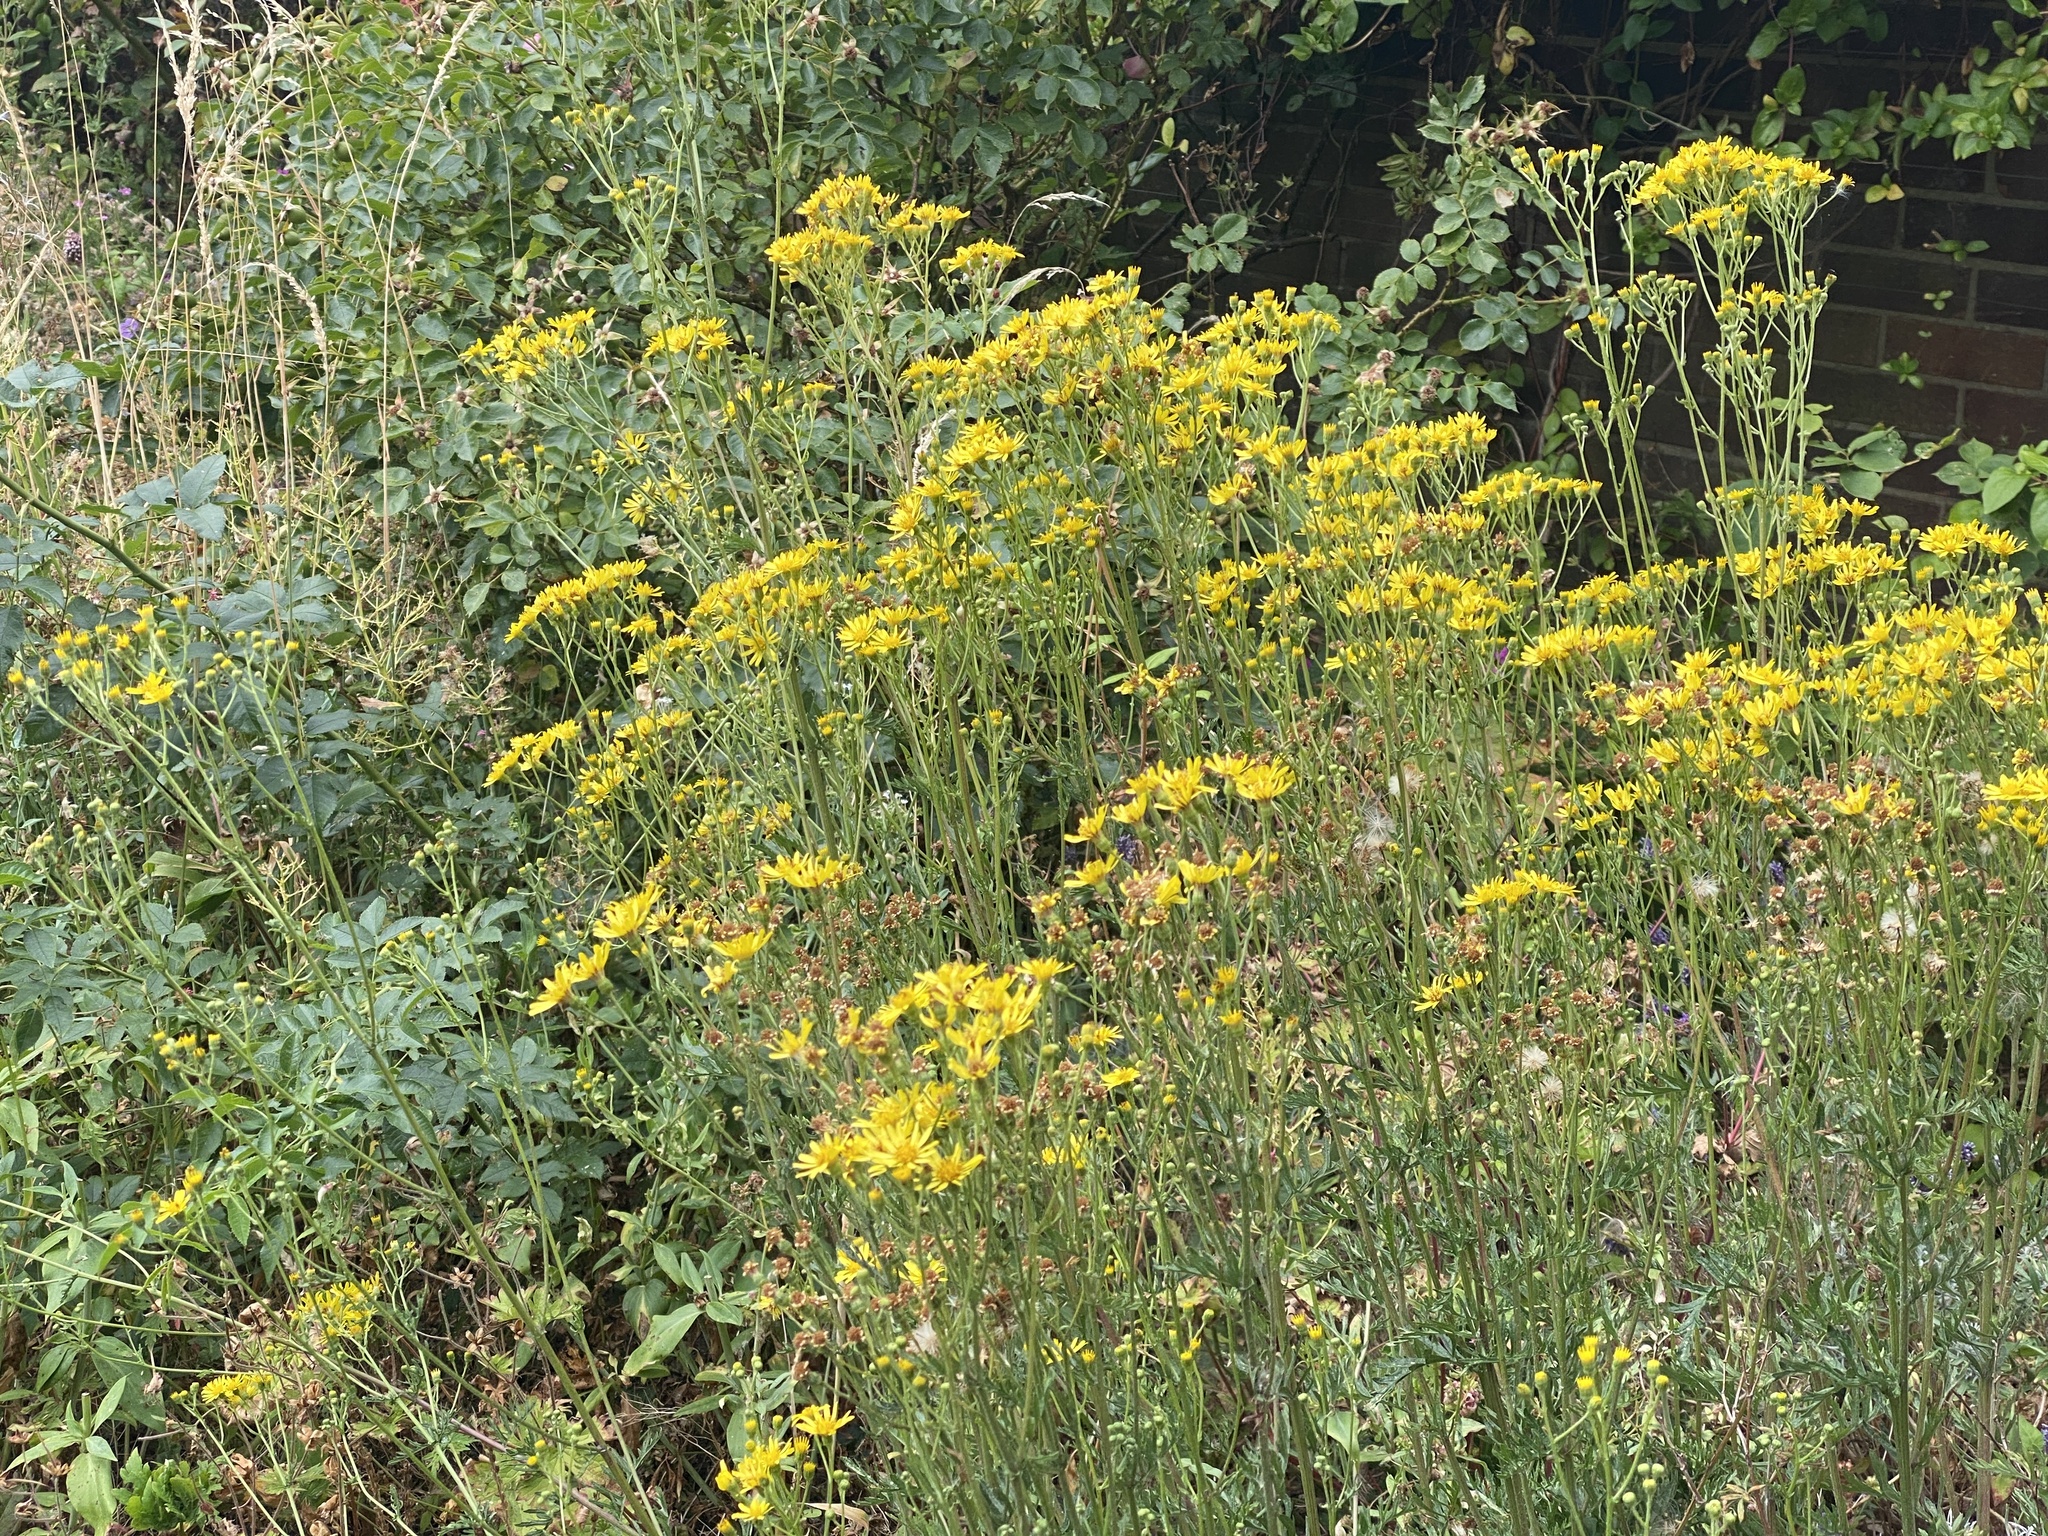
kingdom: Plantae
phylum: Tracheophyta
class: Magnoliopsida
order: Asterales
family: Asteraceae
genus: Jacobaea
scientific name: Jacobaea erucifolia
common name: Hoary ragwort
